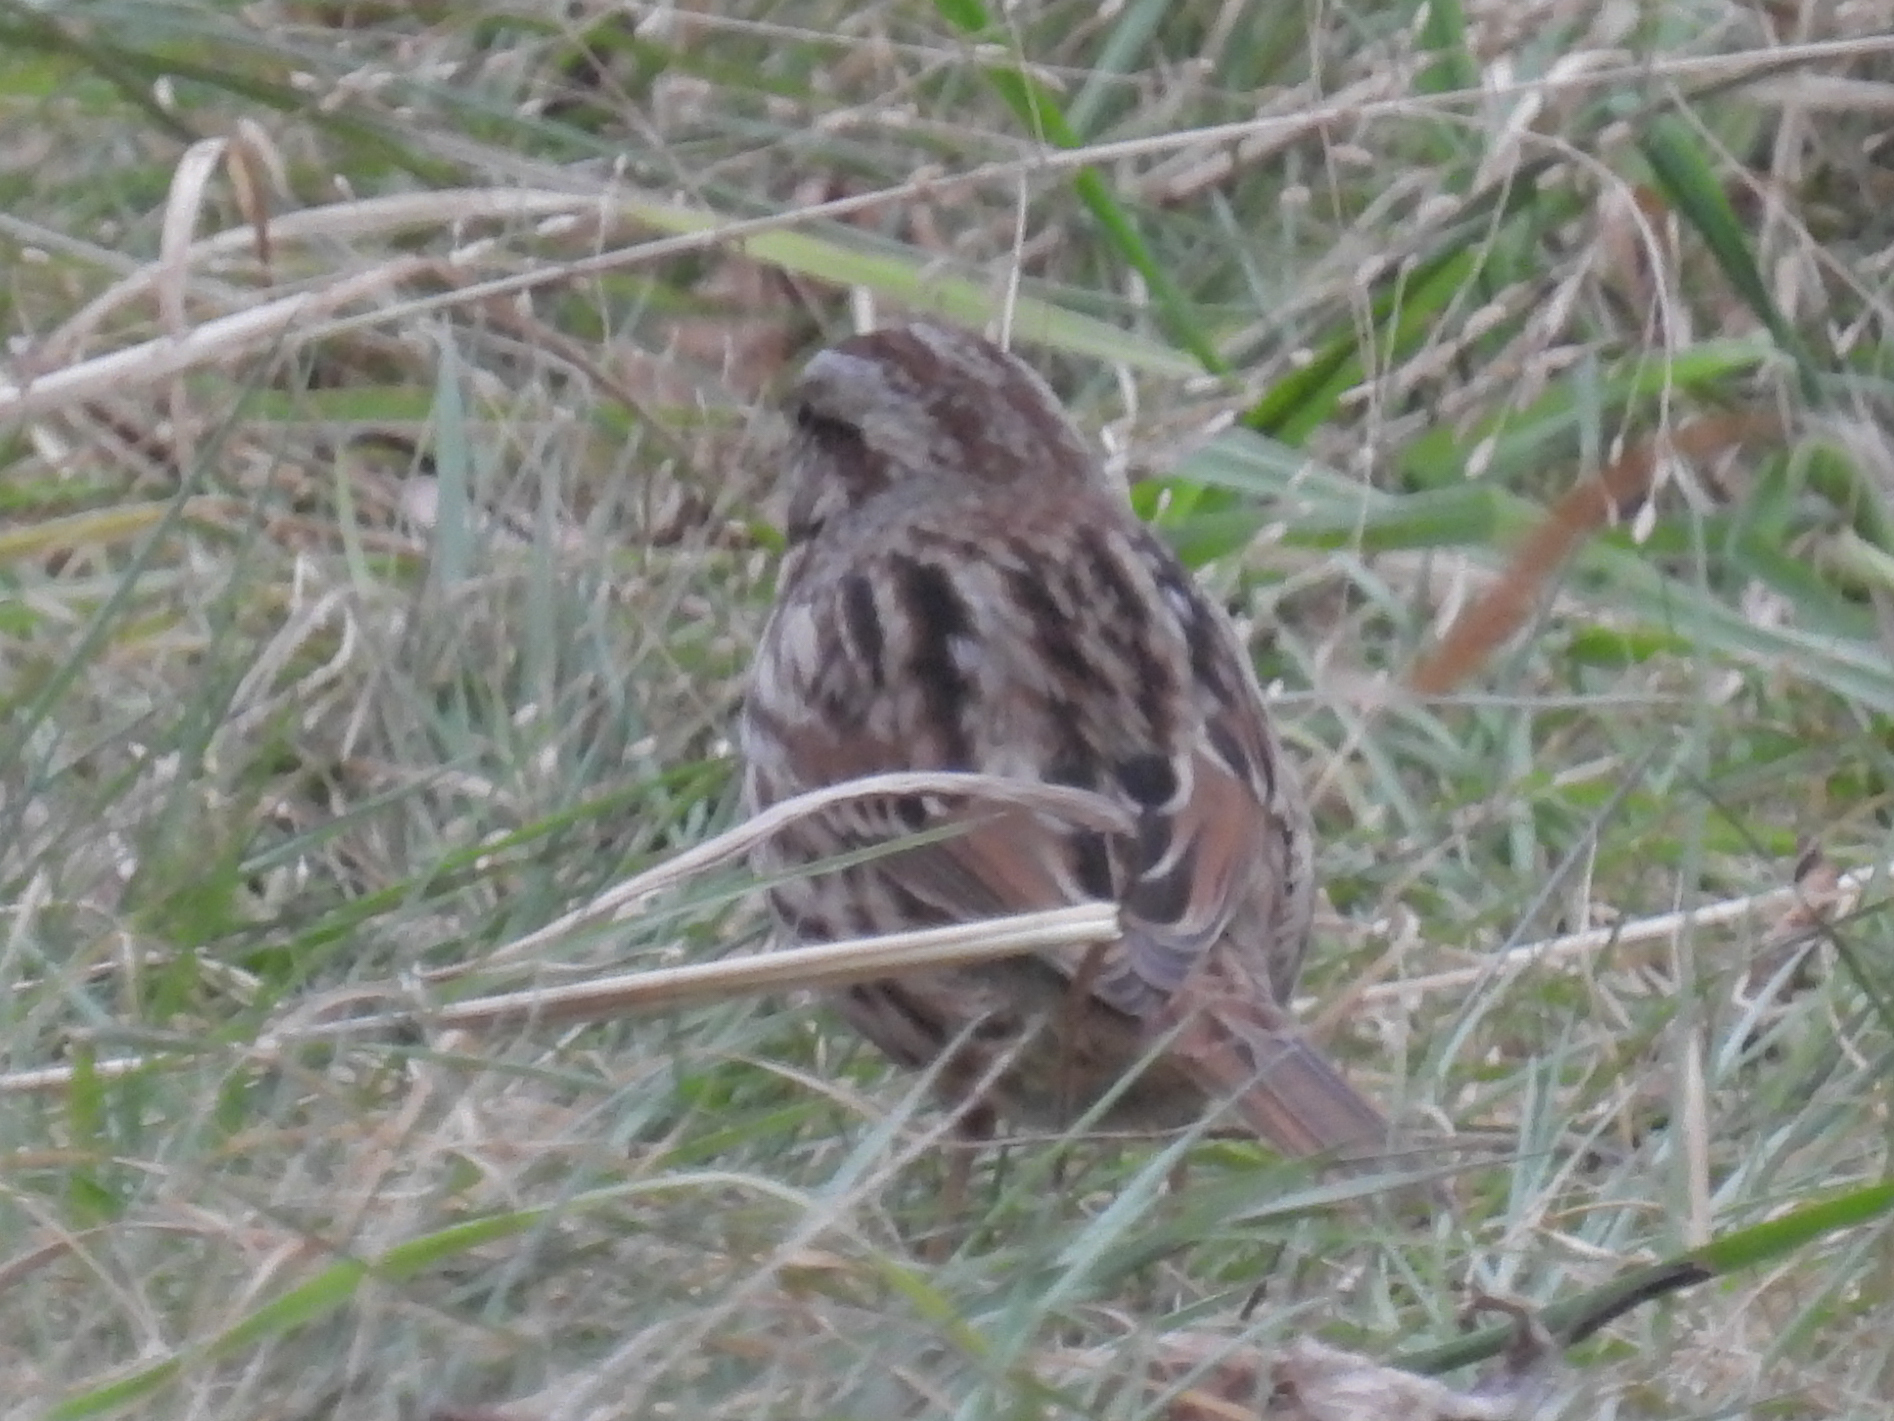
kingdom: Animalia
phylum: Chordata
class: Aves
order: Passeriformes
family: Passerellidae
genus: Melospiza
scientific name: Melospiza melodia
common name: Song sparrow
